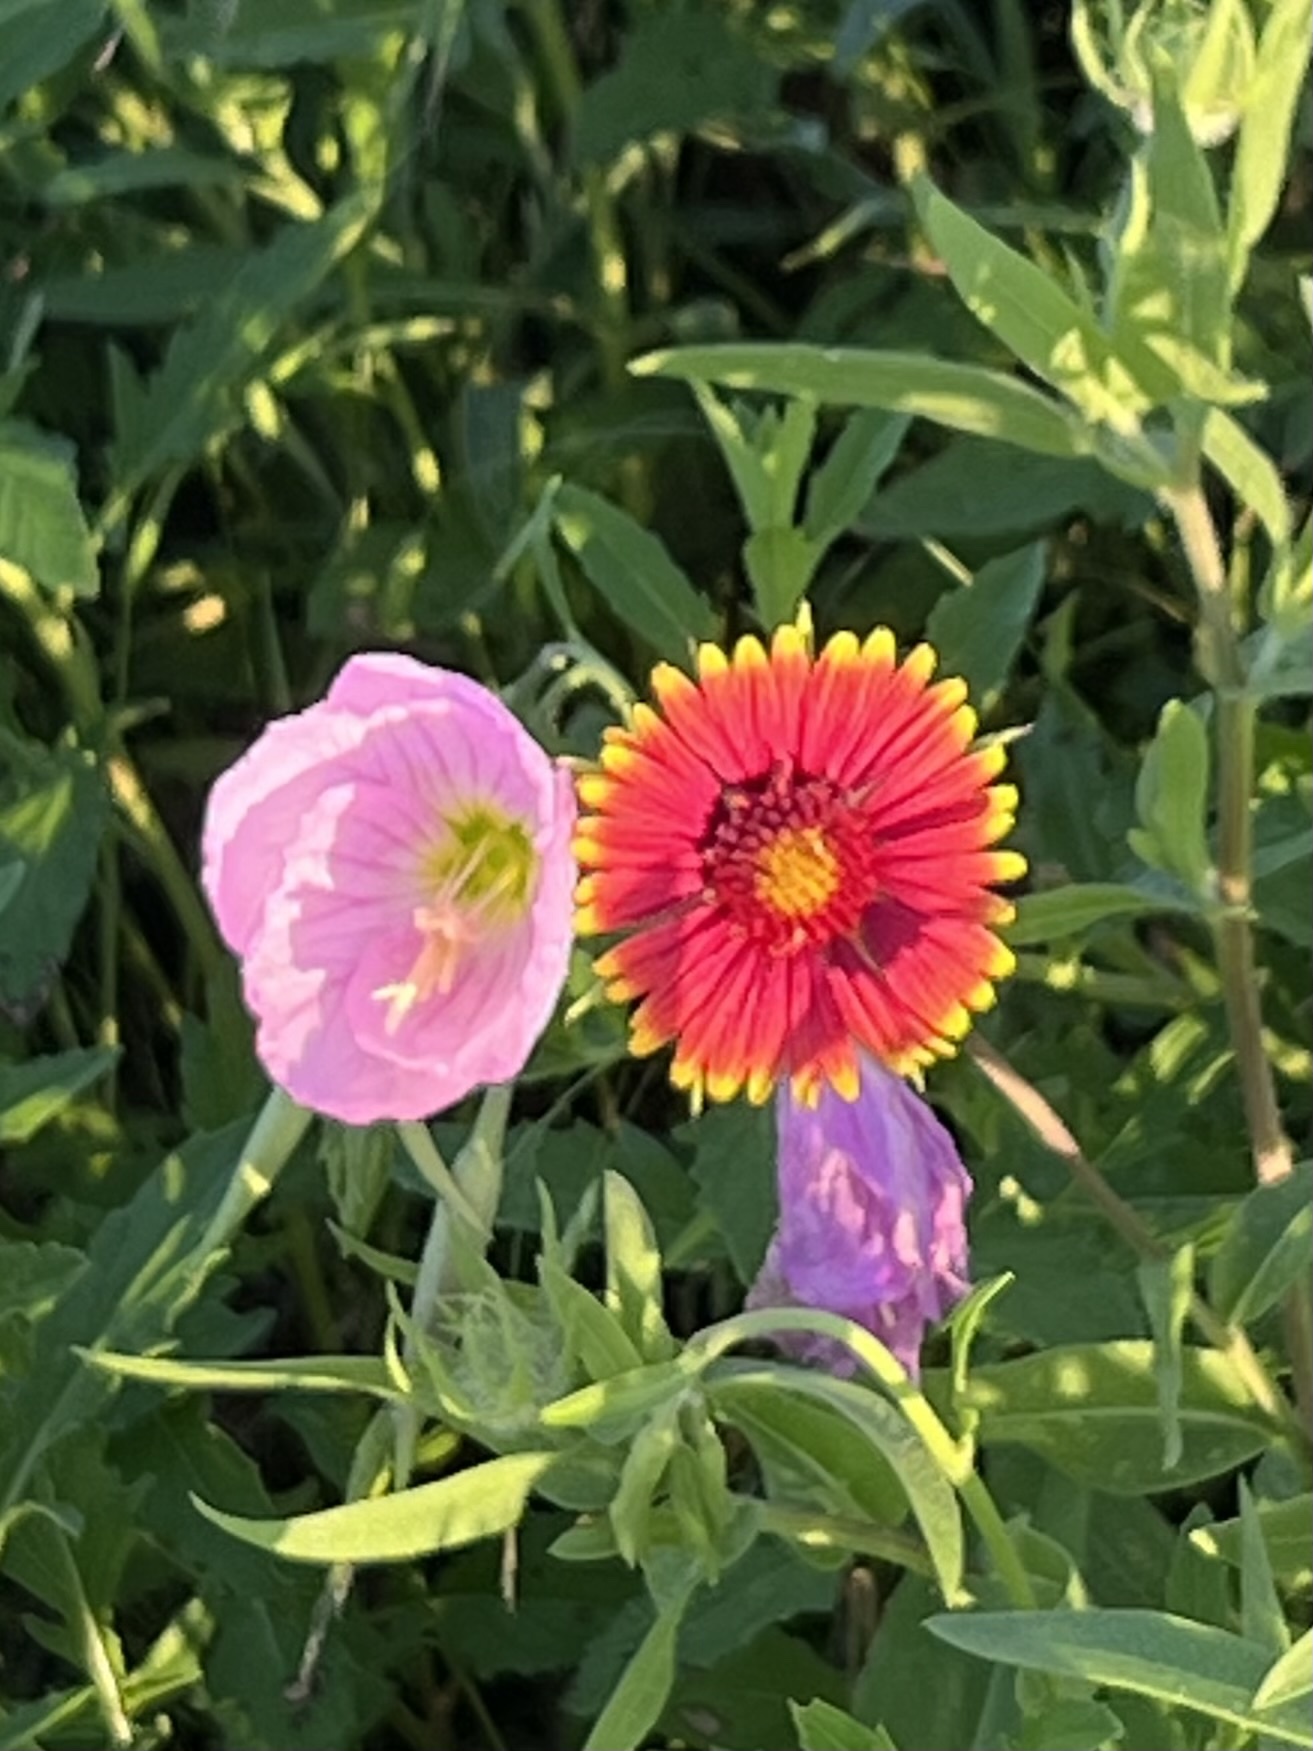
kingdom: Plantae
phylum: Tracheophyta
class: Magnoliopsida
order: Asterales
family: Asteraceae
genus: Gaillardia
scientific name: Gaillardia pulchella
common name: Firewheel
